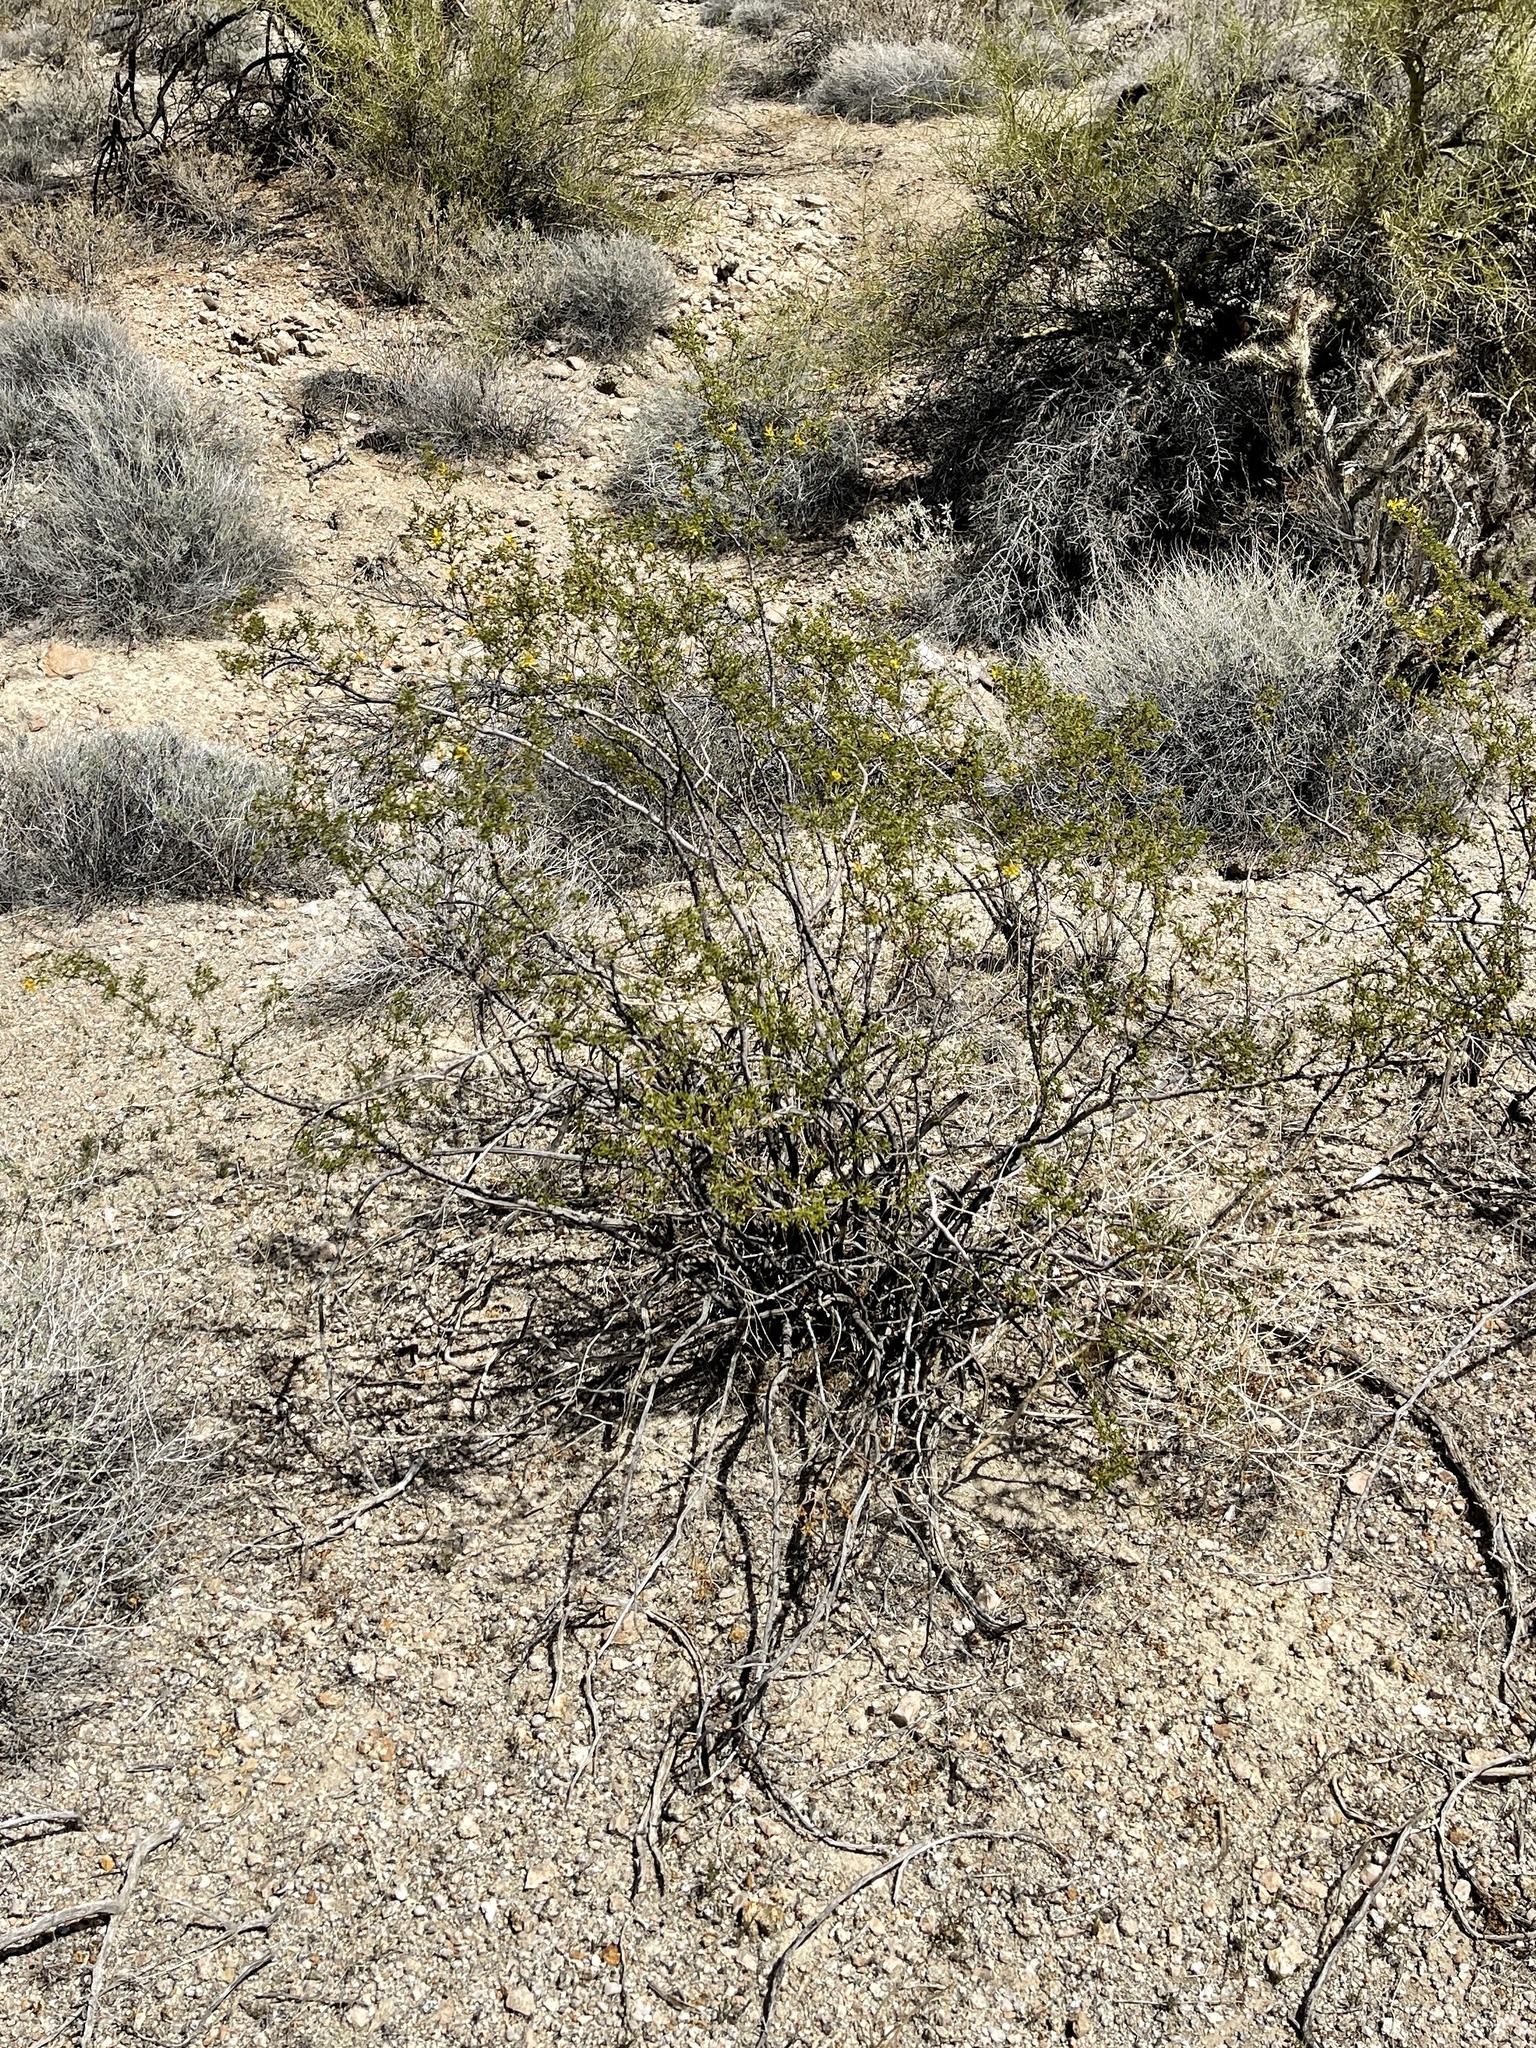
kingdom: Plantae
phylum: Tracheophyta
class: Magnoliopsida
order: Zygophyllales
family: Zygophyllaceae
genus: Larrea
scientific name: Larrea tridentata
